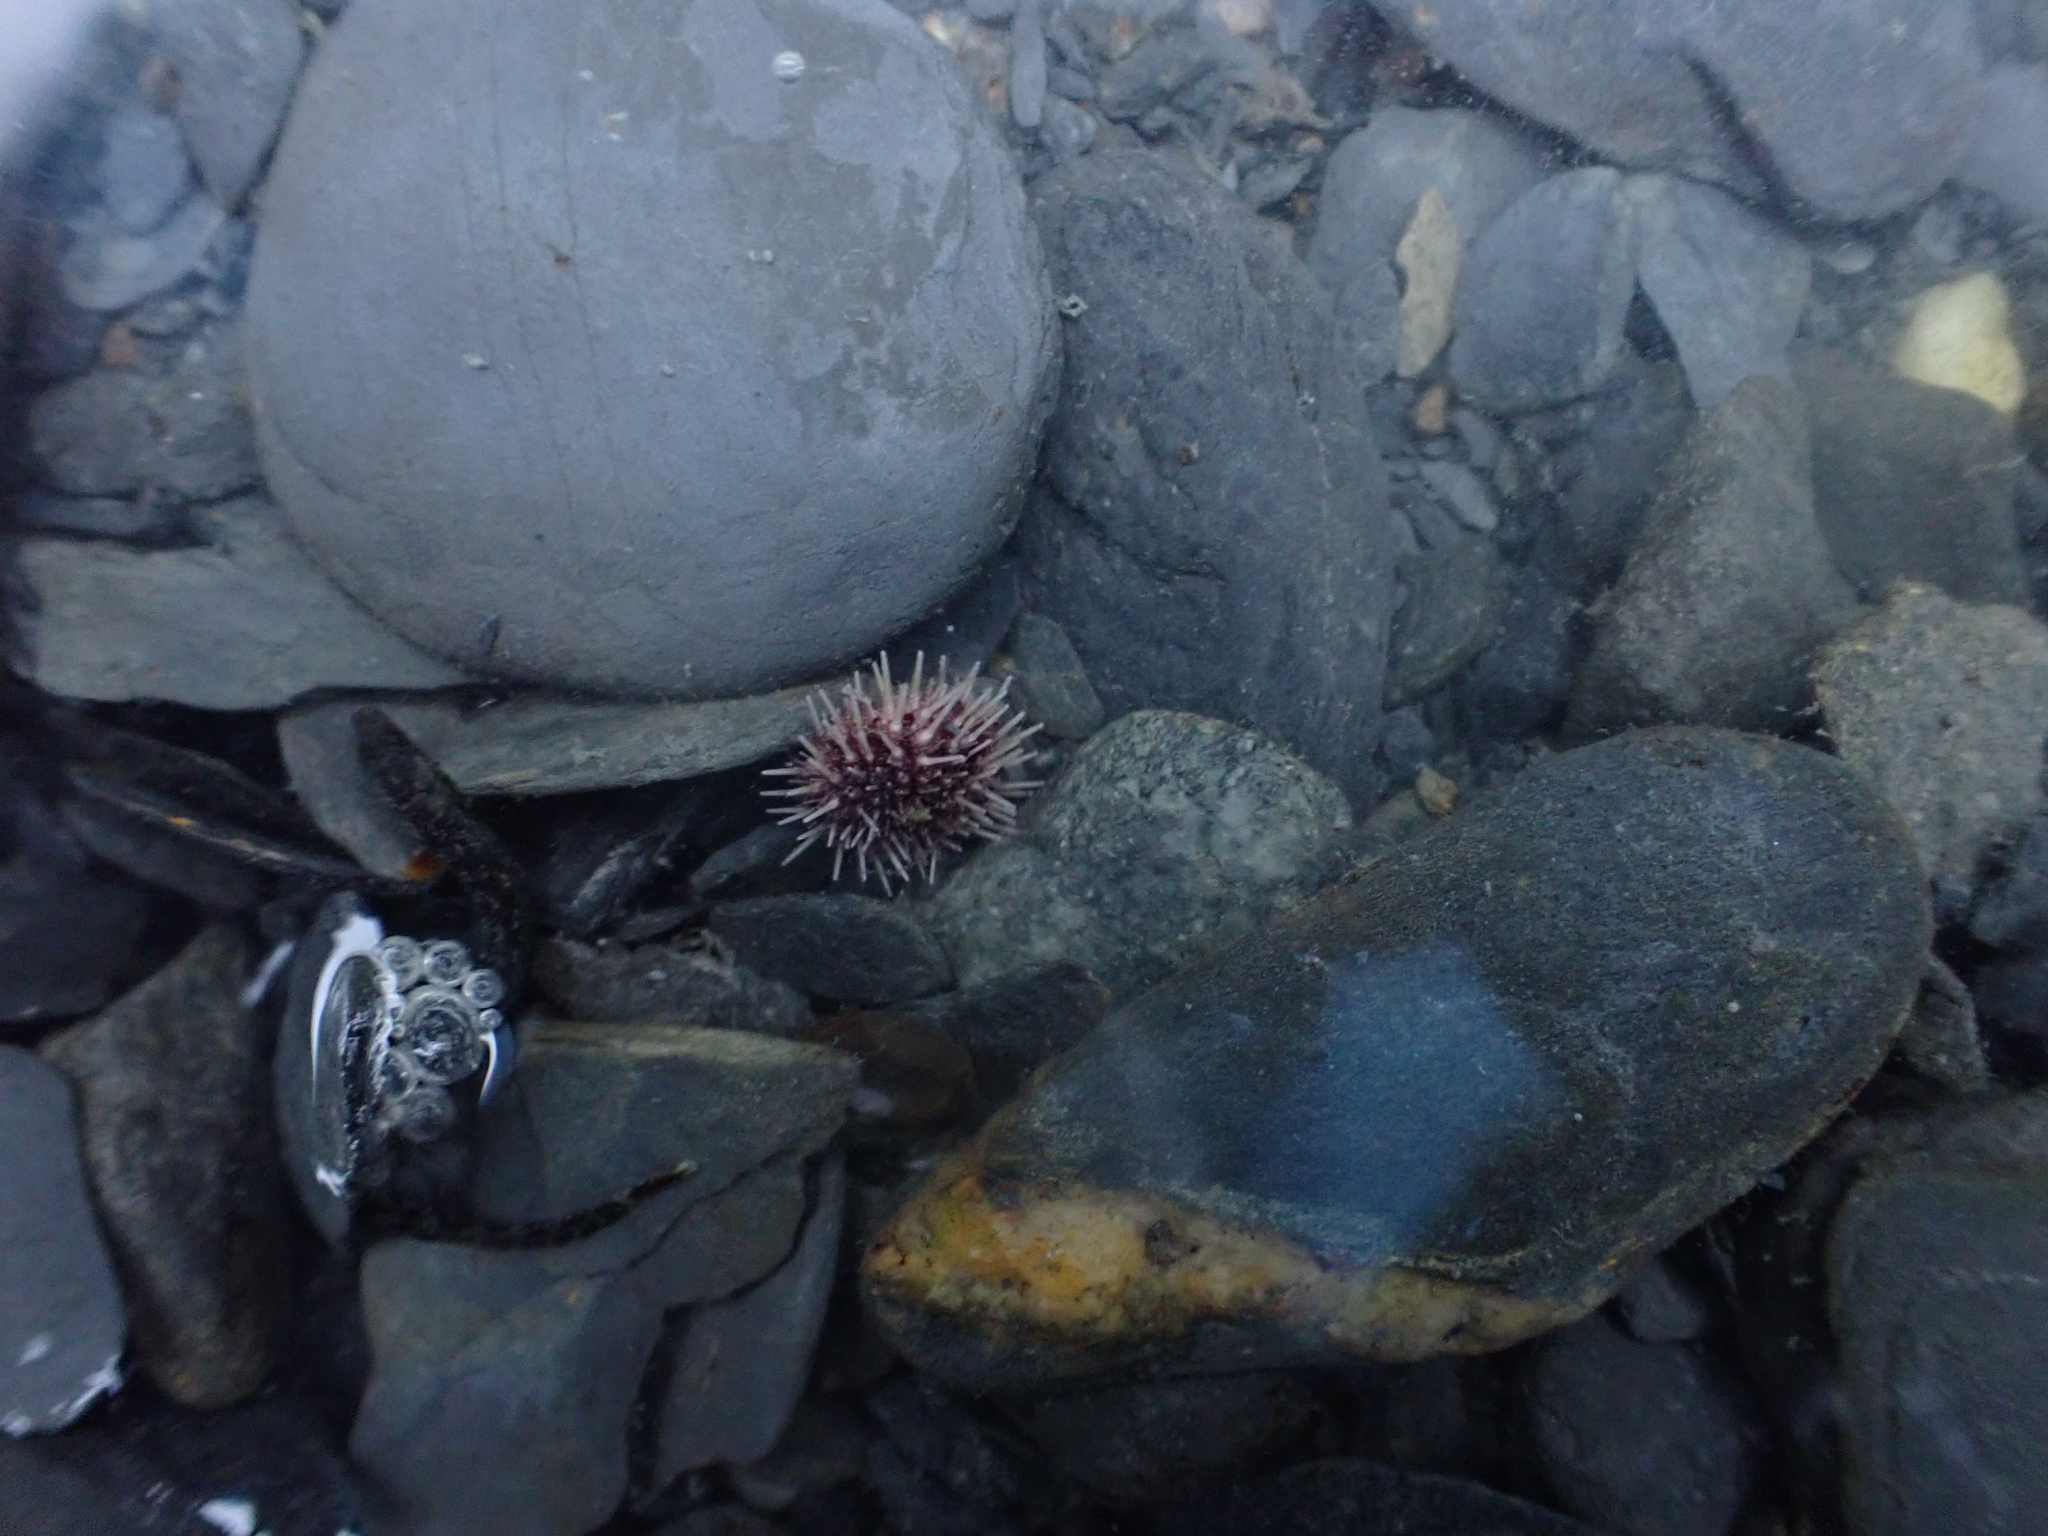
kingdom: Animalia
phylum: Echinodermata
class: Echinoidea
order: Camarodonta
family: Strongylocentrotidae
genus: Strongylocentrotus
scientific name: Strongylocentrotus droebachiensis
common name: Northern sea urchin
